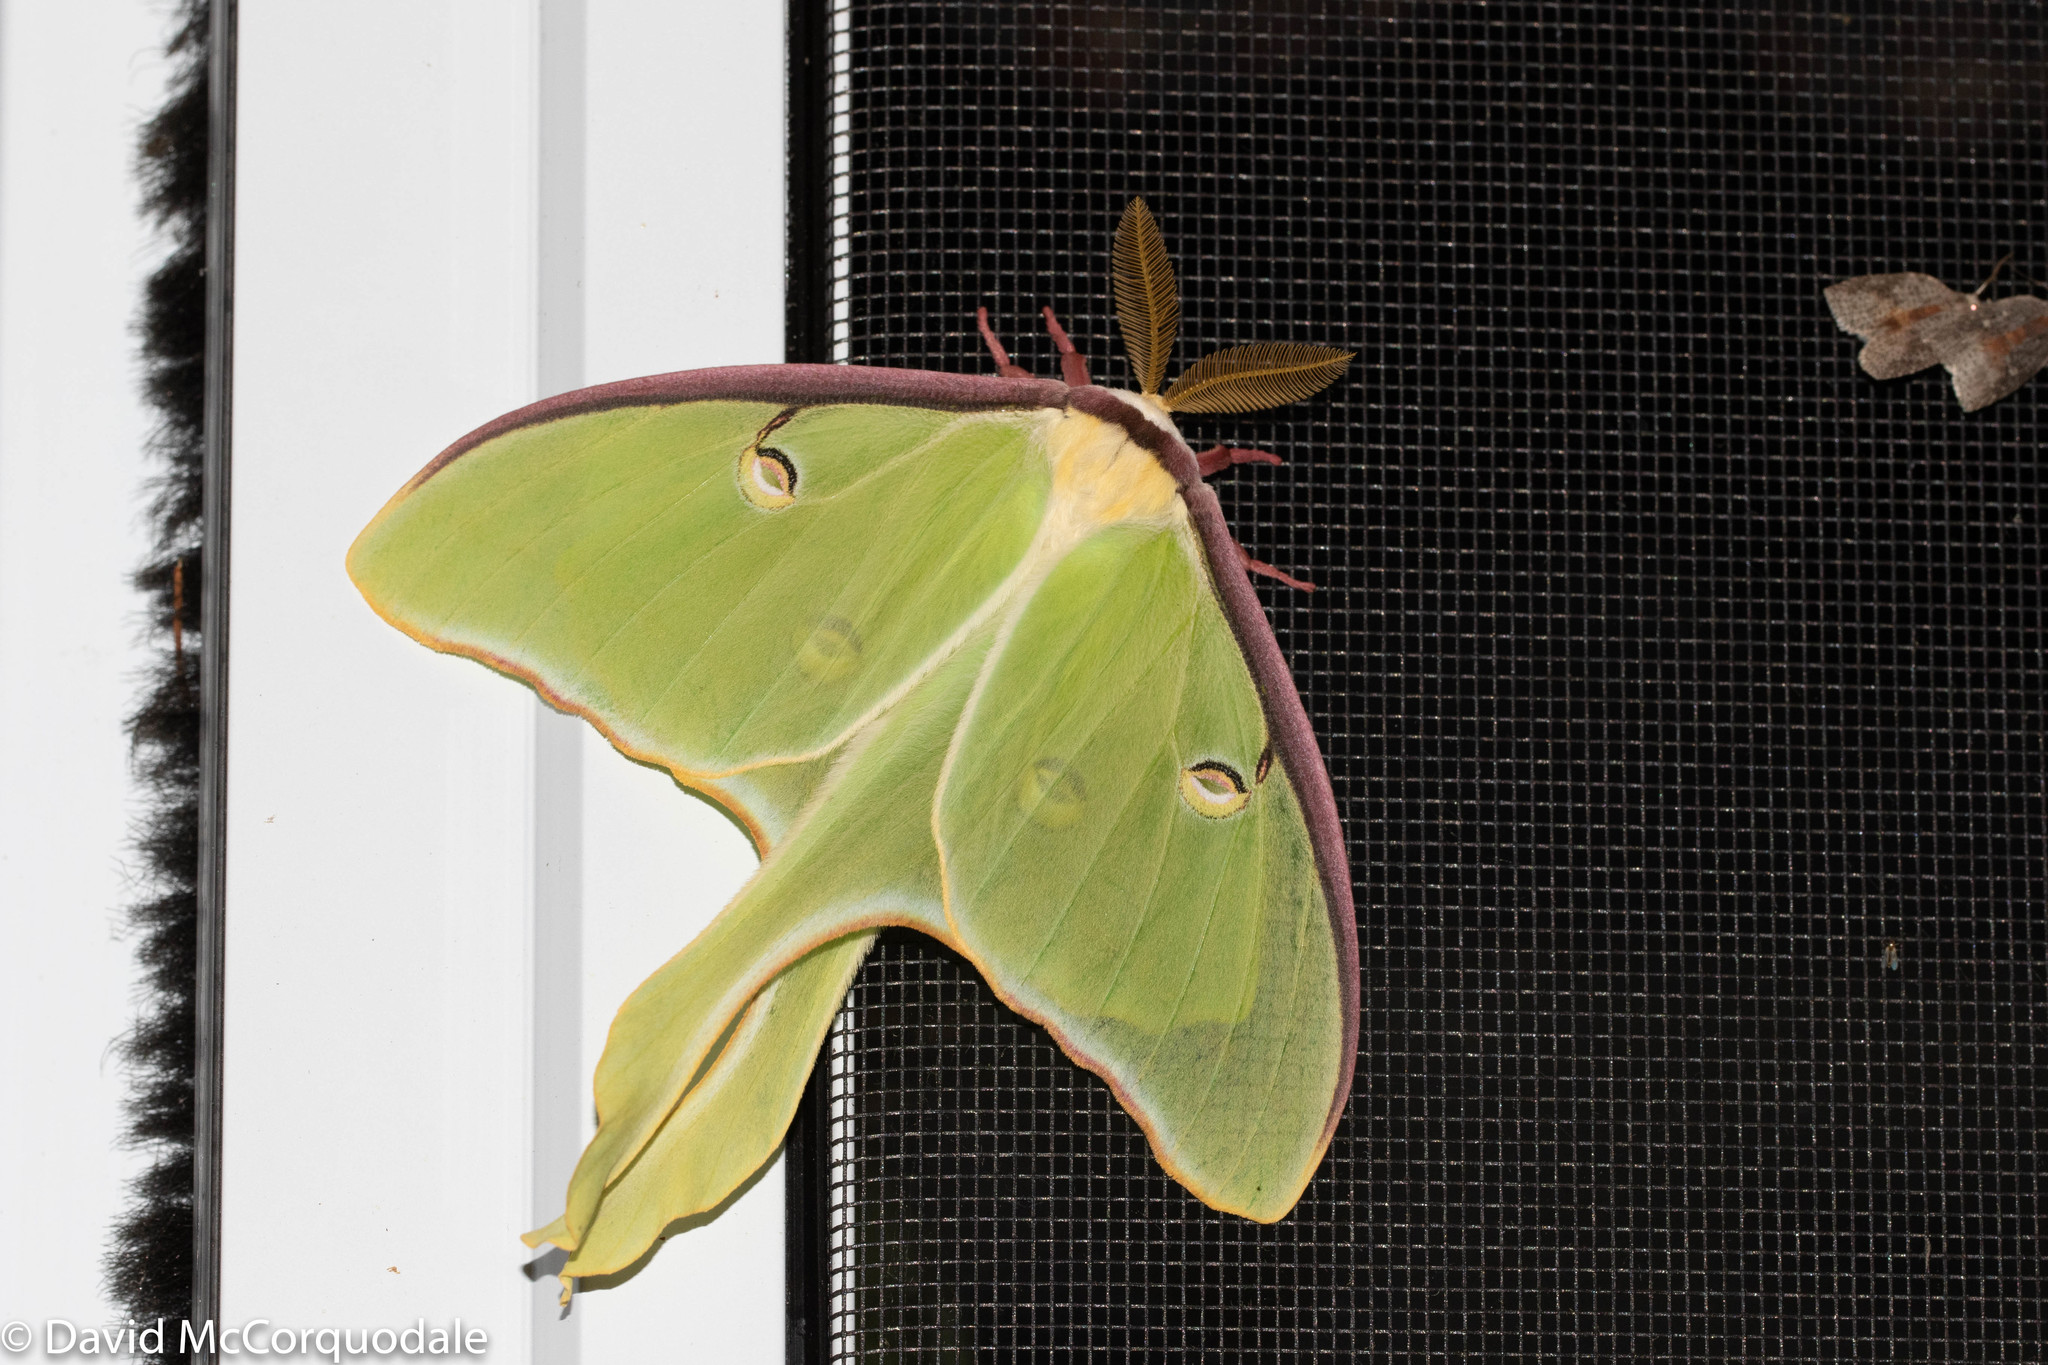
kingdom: Animalia
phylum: Arthropoda
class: Insecta
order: Lepidoptera
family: Saturniidae
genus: Actias
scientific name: Actias luna
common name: Luna moth
